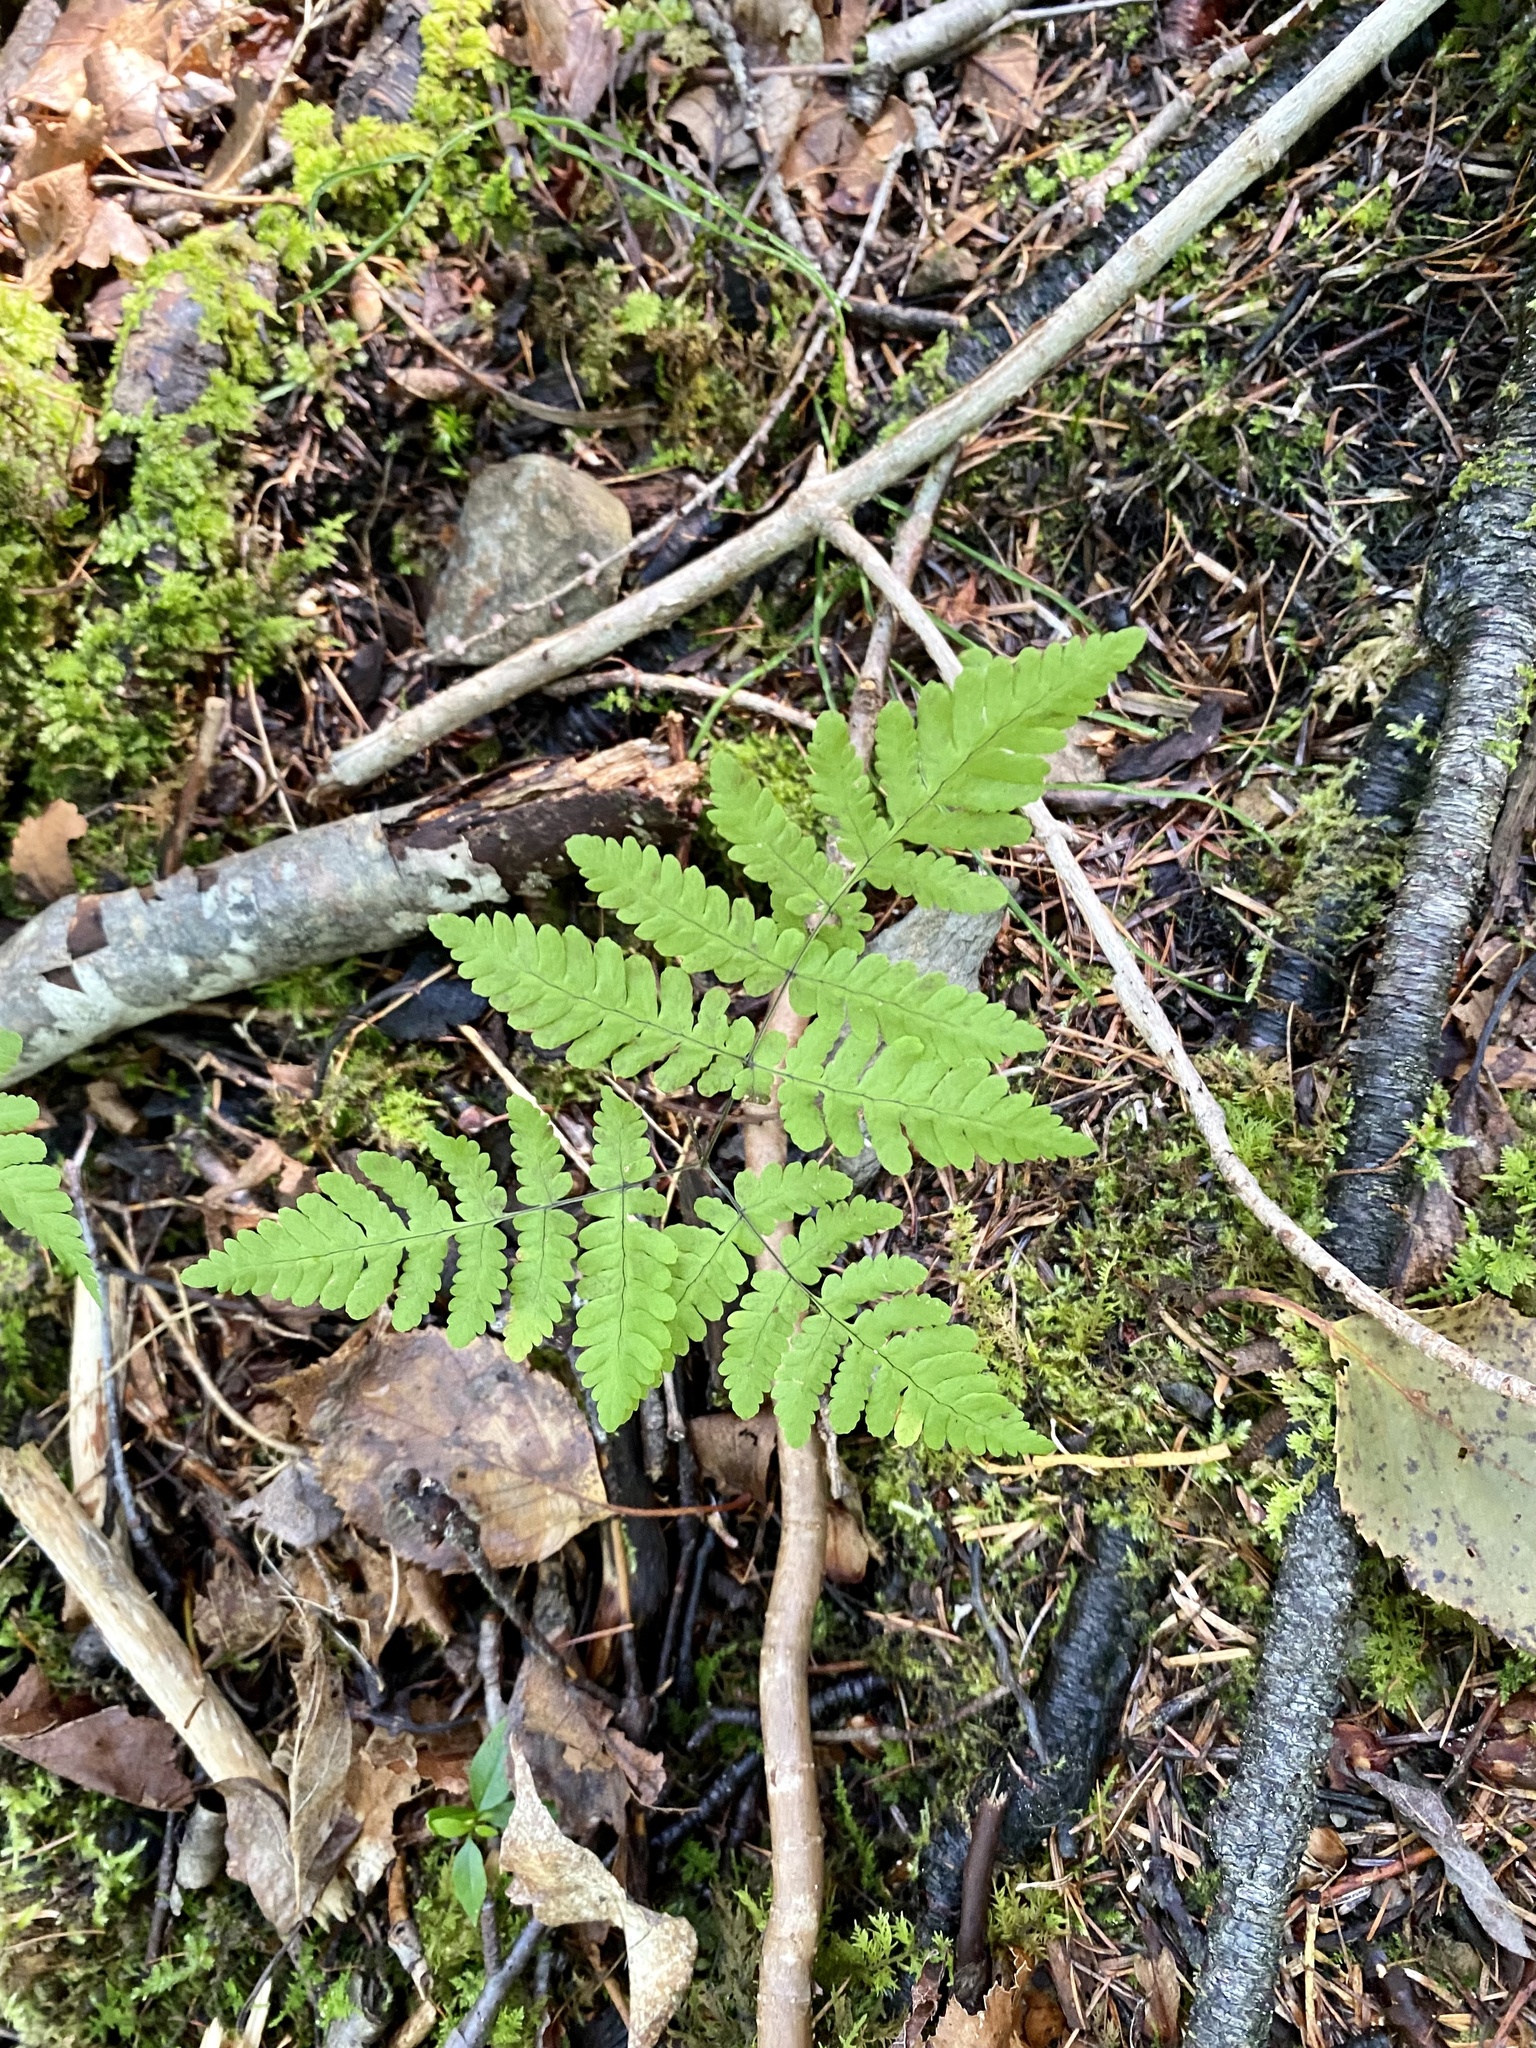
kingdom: Plantae
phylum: Tracheophyta
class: Polypodiopsida
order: Polypodiales
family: Cystopteridaceae
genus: Gymnocarpium
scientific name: Gymnocarpium dryopteris
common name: Oak fern
